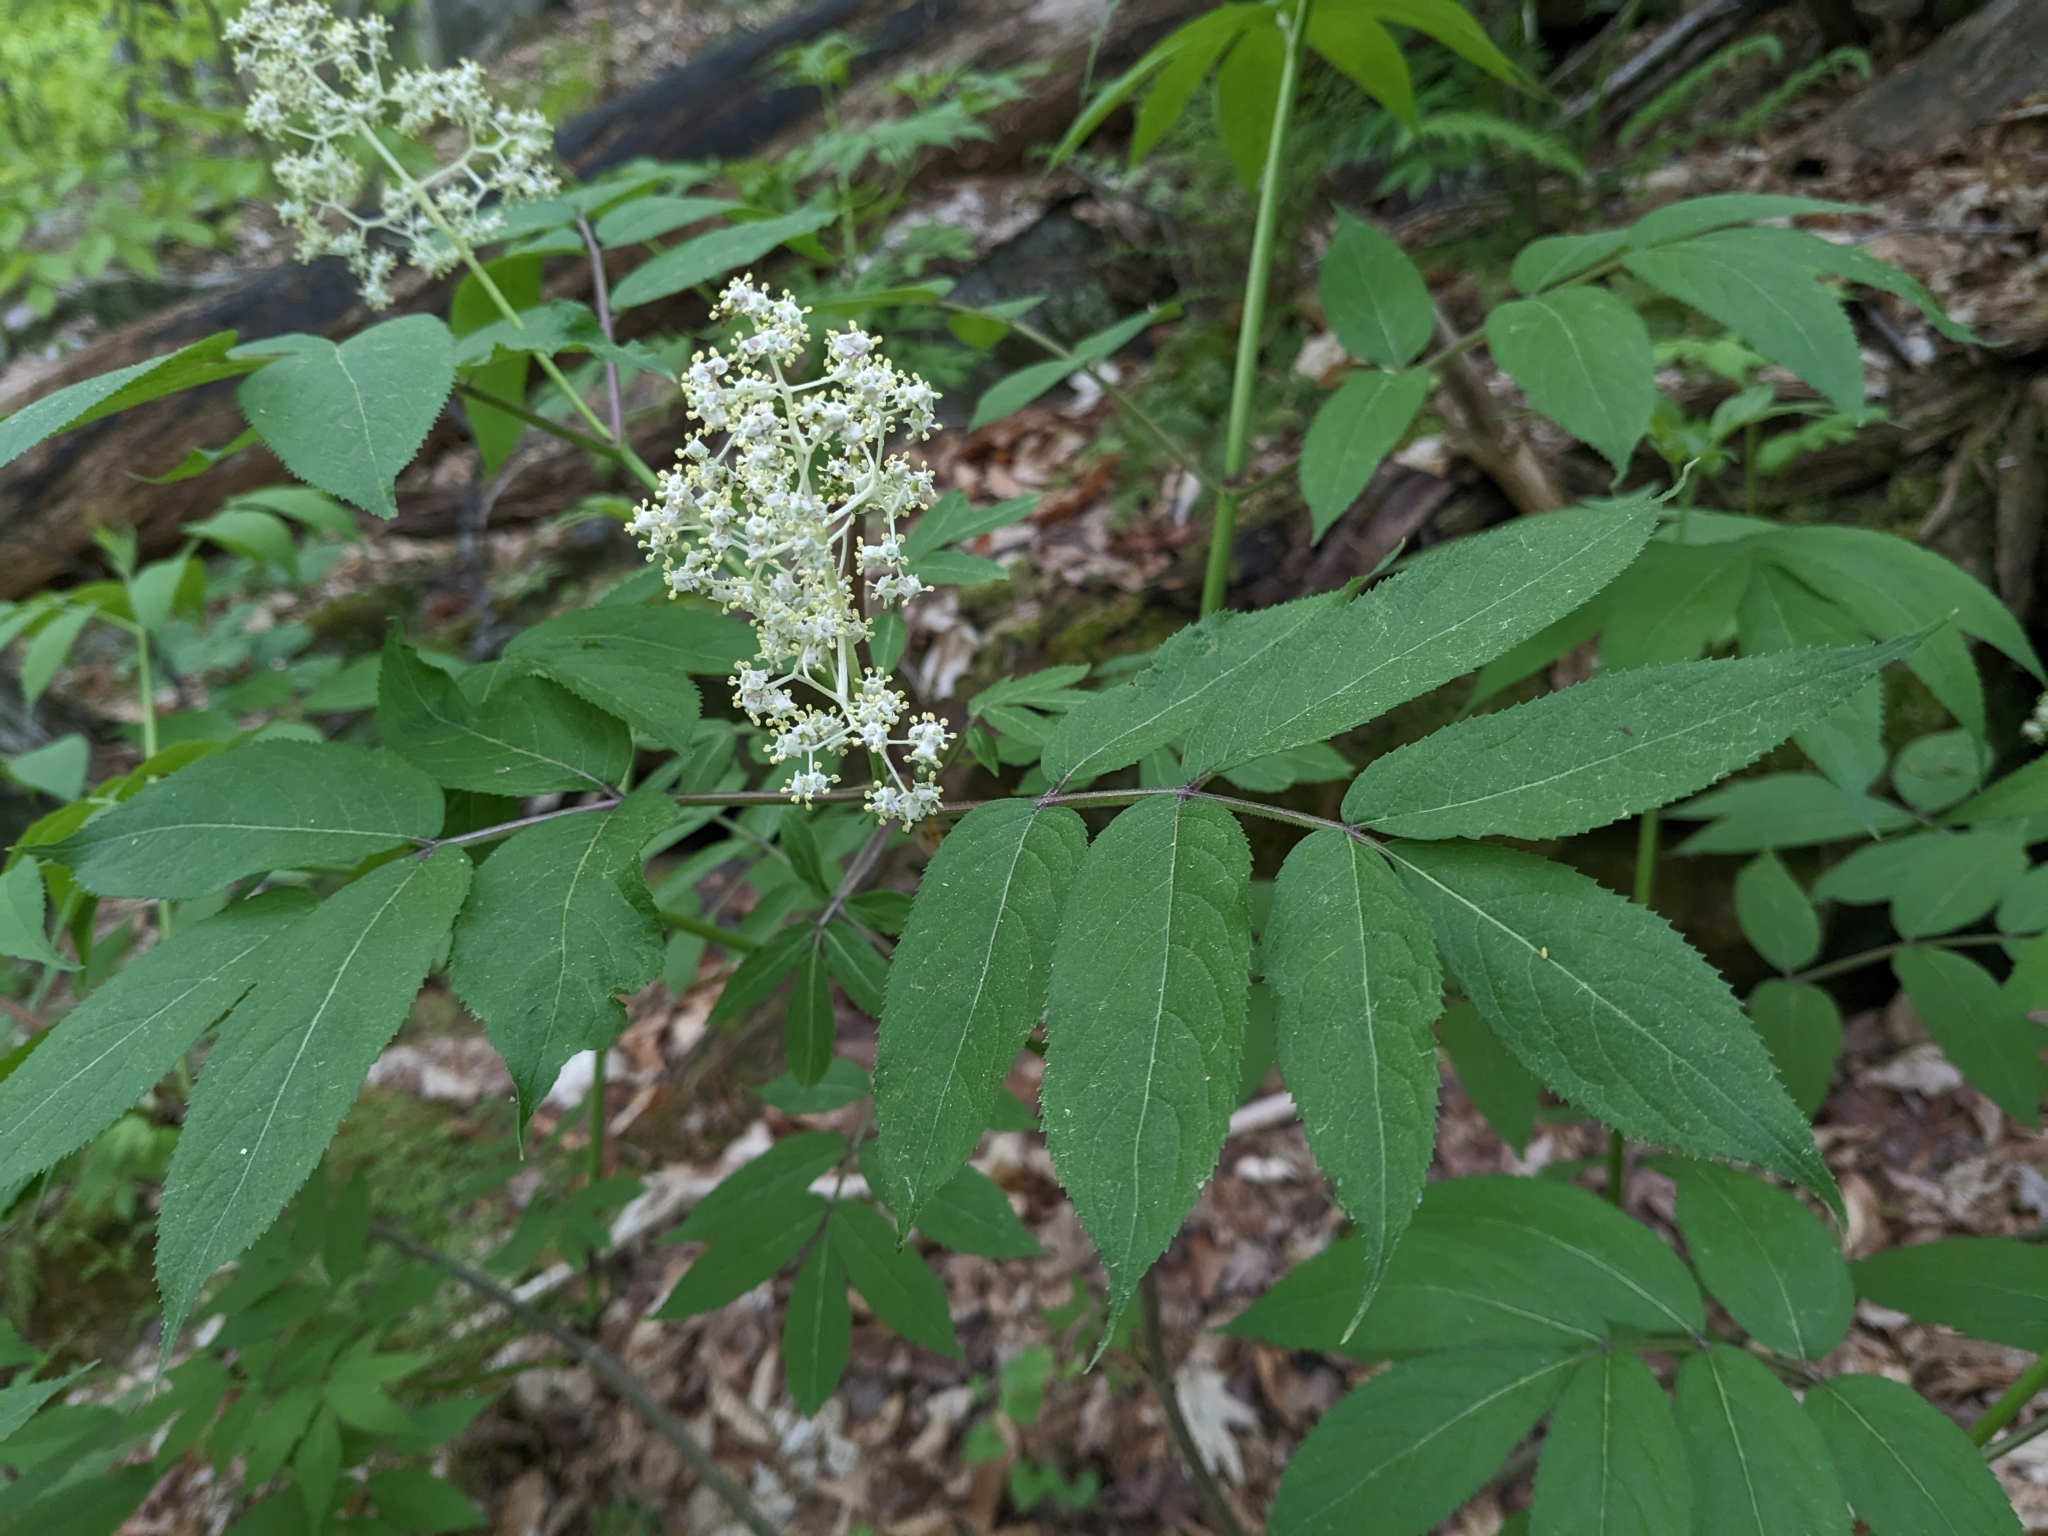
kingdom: Plantae
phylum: Tracheophyta
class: Magnoliopsida
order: Dipsacales
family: Viburnaceae
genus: Sambucus
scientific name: Sambucus racemosa
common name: Red-berried elder
